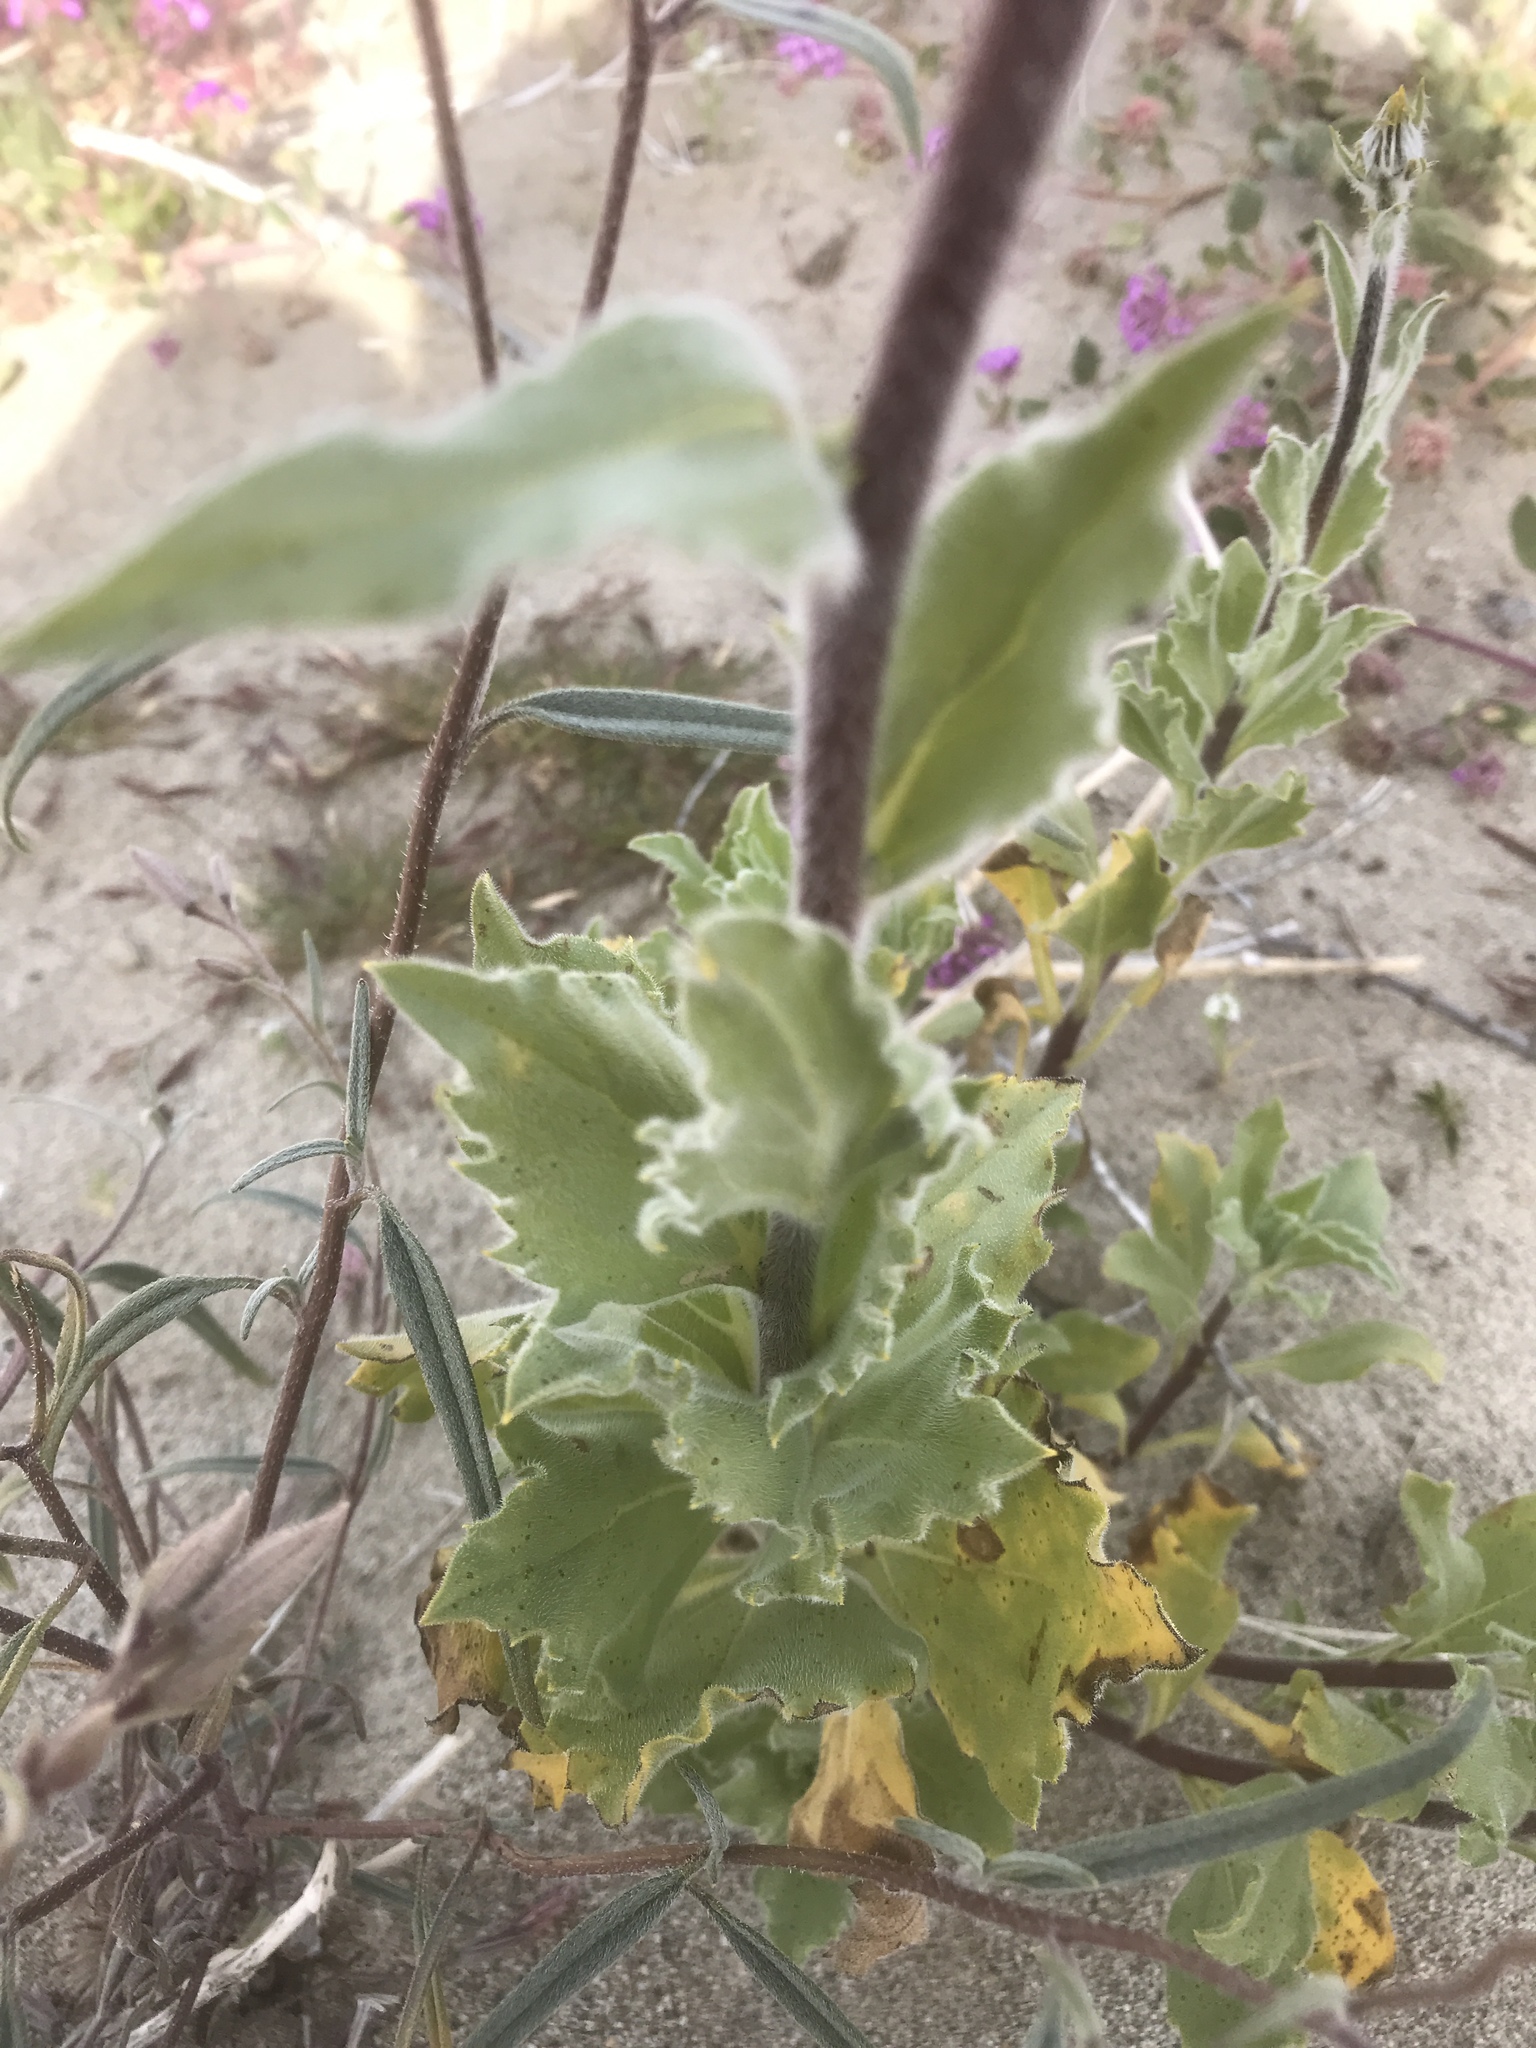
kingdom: Plantae
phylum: Tracheophyta
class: Magnoliopsida
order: Asterales
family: Asteraceae
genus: Geraea
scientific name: Geraea canescens
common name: Desert-gold
